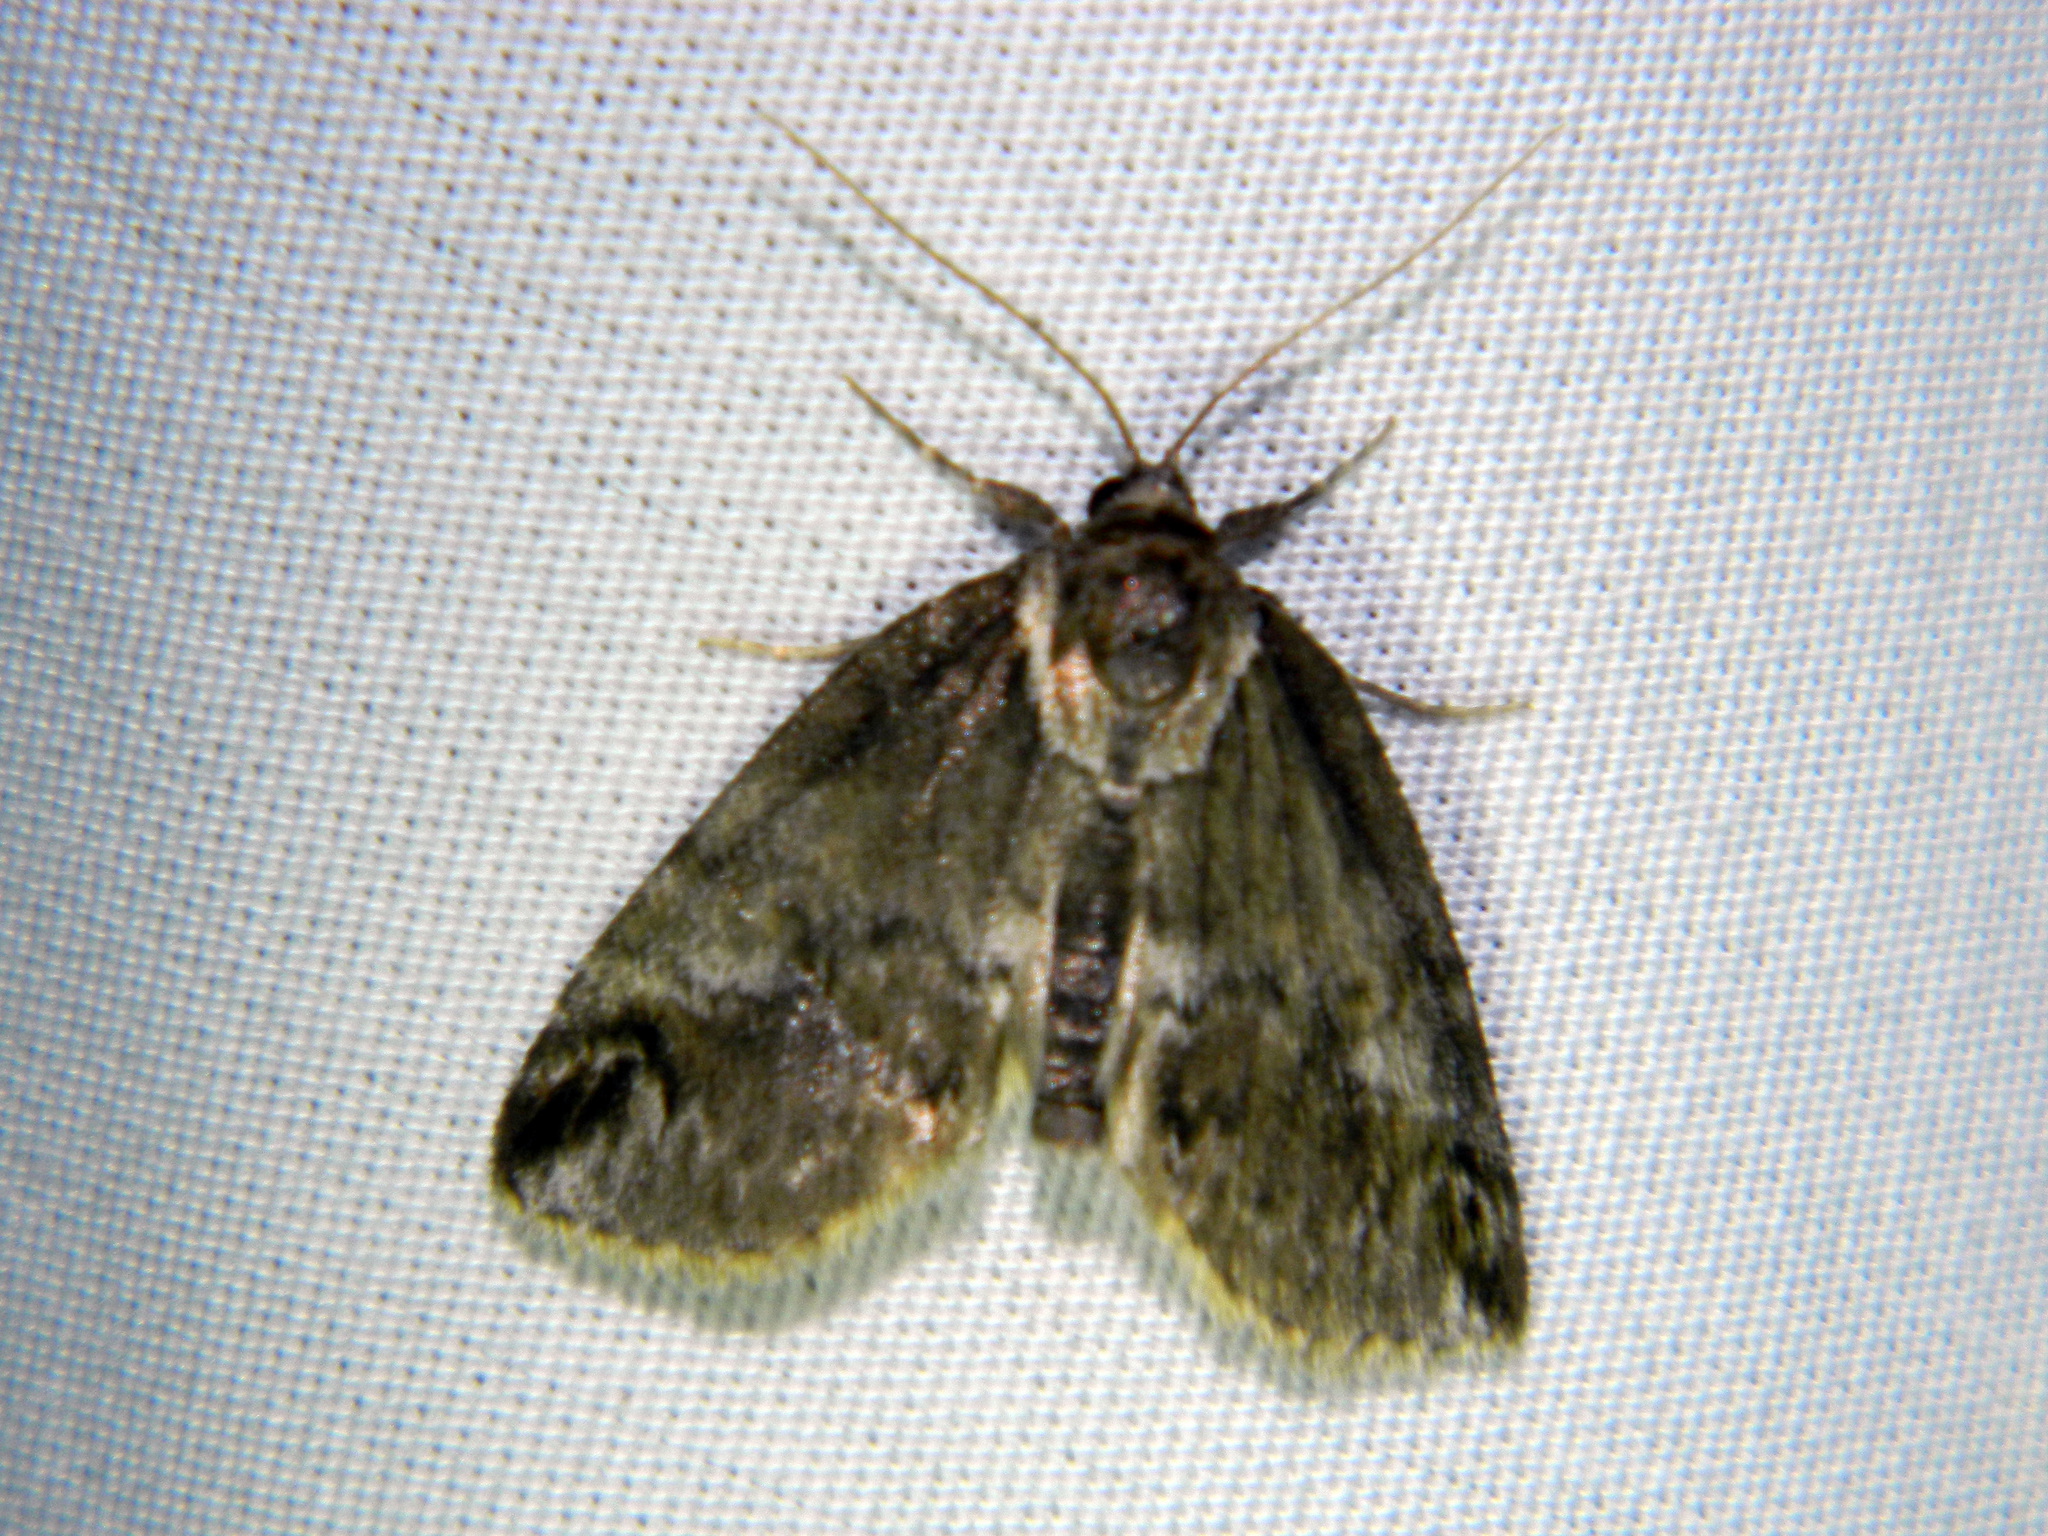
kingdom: Animalia
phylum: Arthropoda
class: Insecta
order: Lepidoptera
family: Nolidae
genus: Baileya
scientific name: Baileya ophthalmica
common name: Eyed baileya moth
